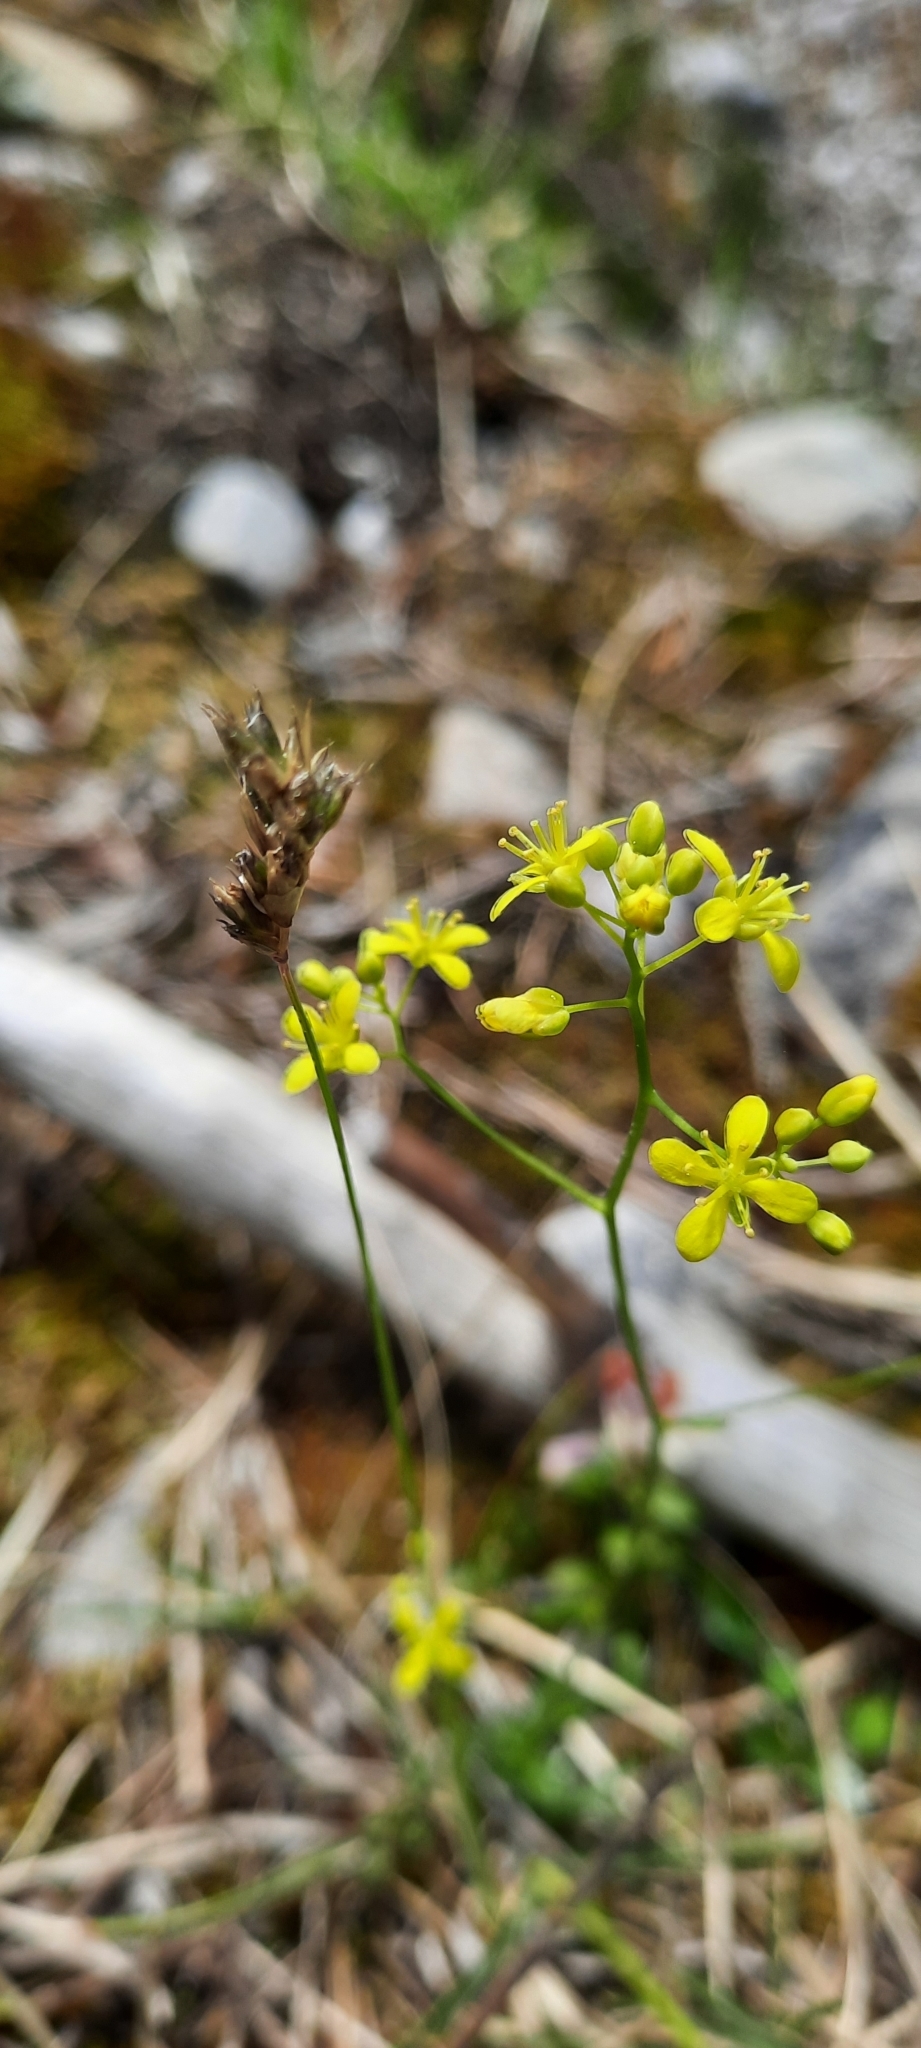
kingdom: Plantae
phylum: Tracheophyta
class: Magnoliopsida
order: Brassicales
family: Brassicaceae
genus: Biscutella
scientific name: Biscutella laevigata
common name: Buckler mustard
